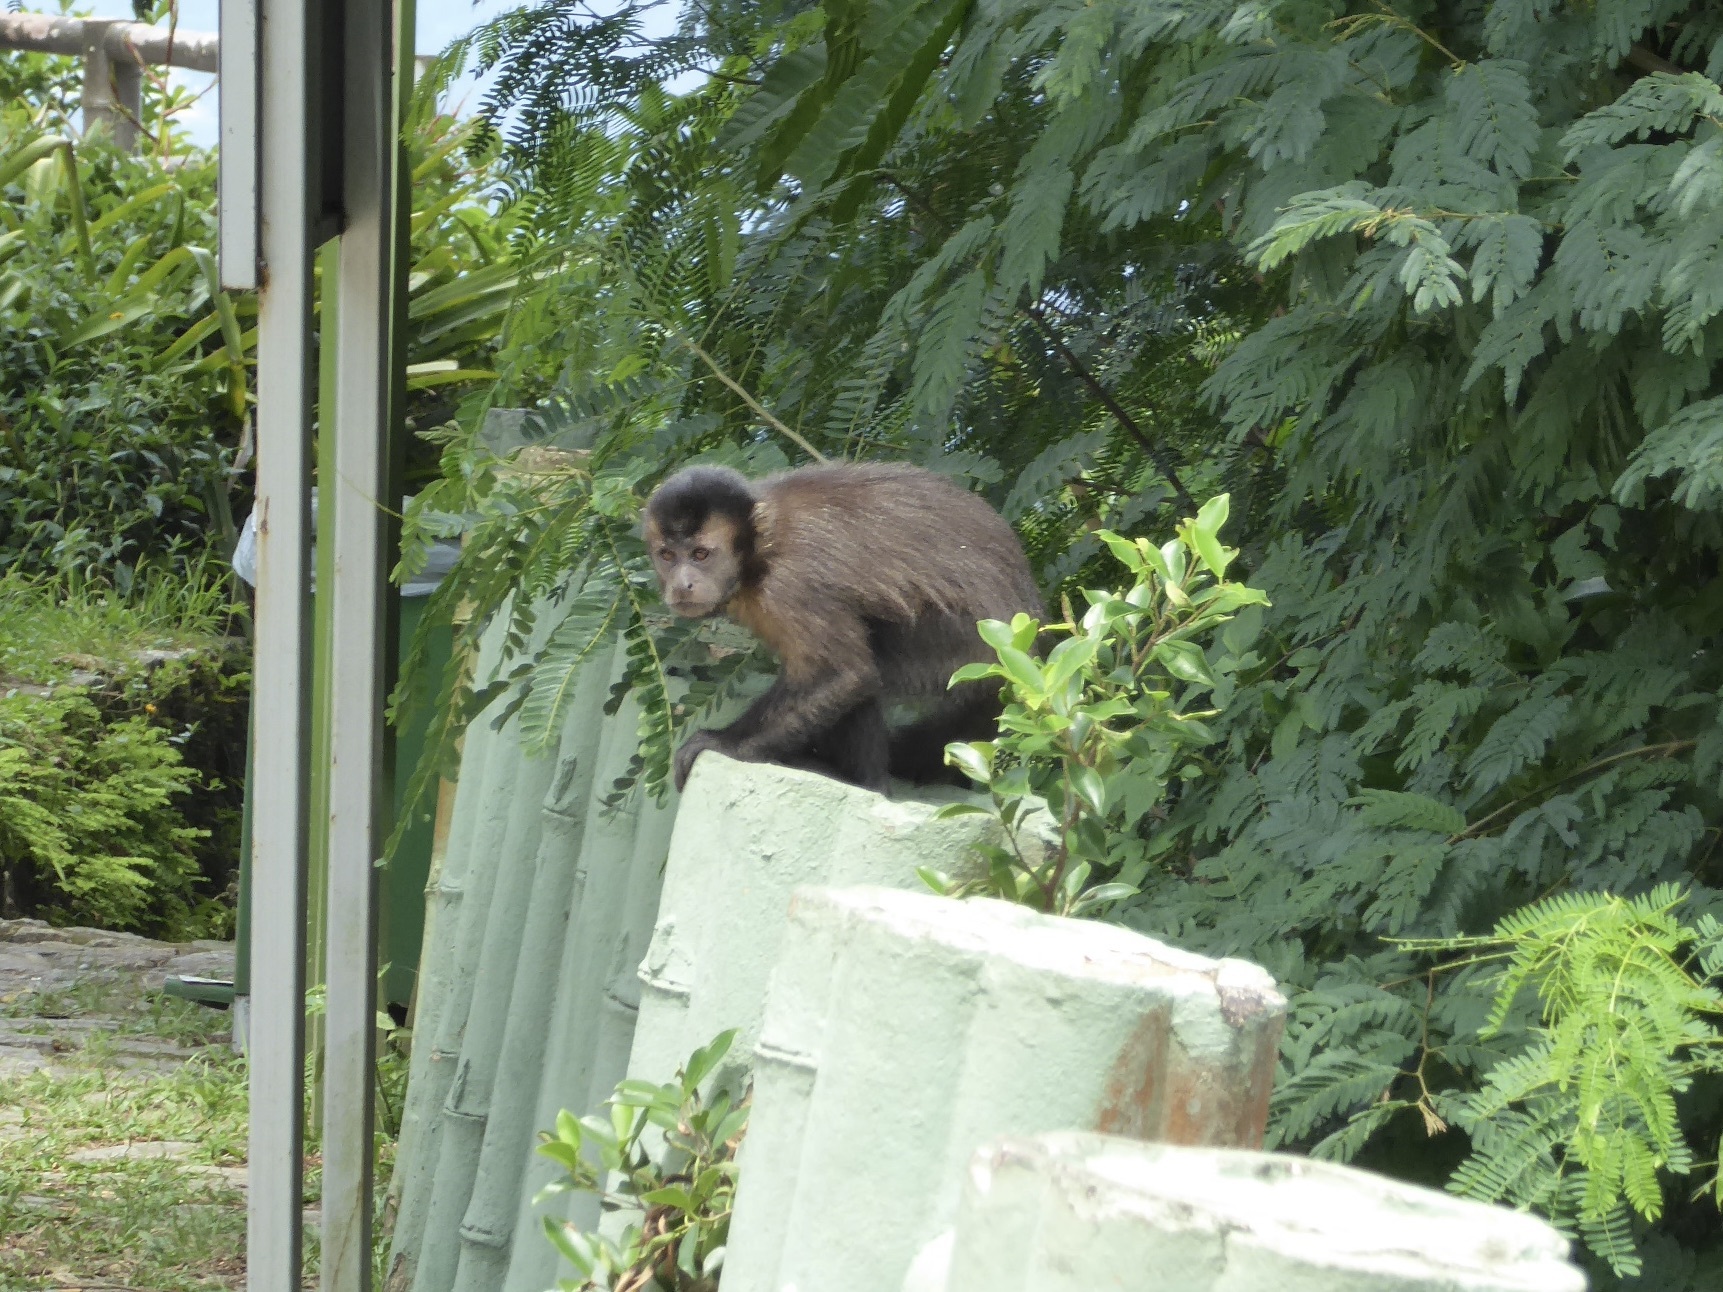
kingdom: Animalia
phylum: Chordata
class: Mammalia
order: Primates
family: Cebidae
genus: Sapajus
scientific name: Sapajus nigritus
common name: Black capuchin
